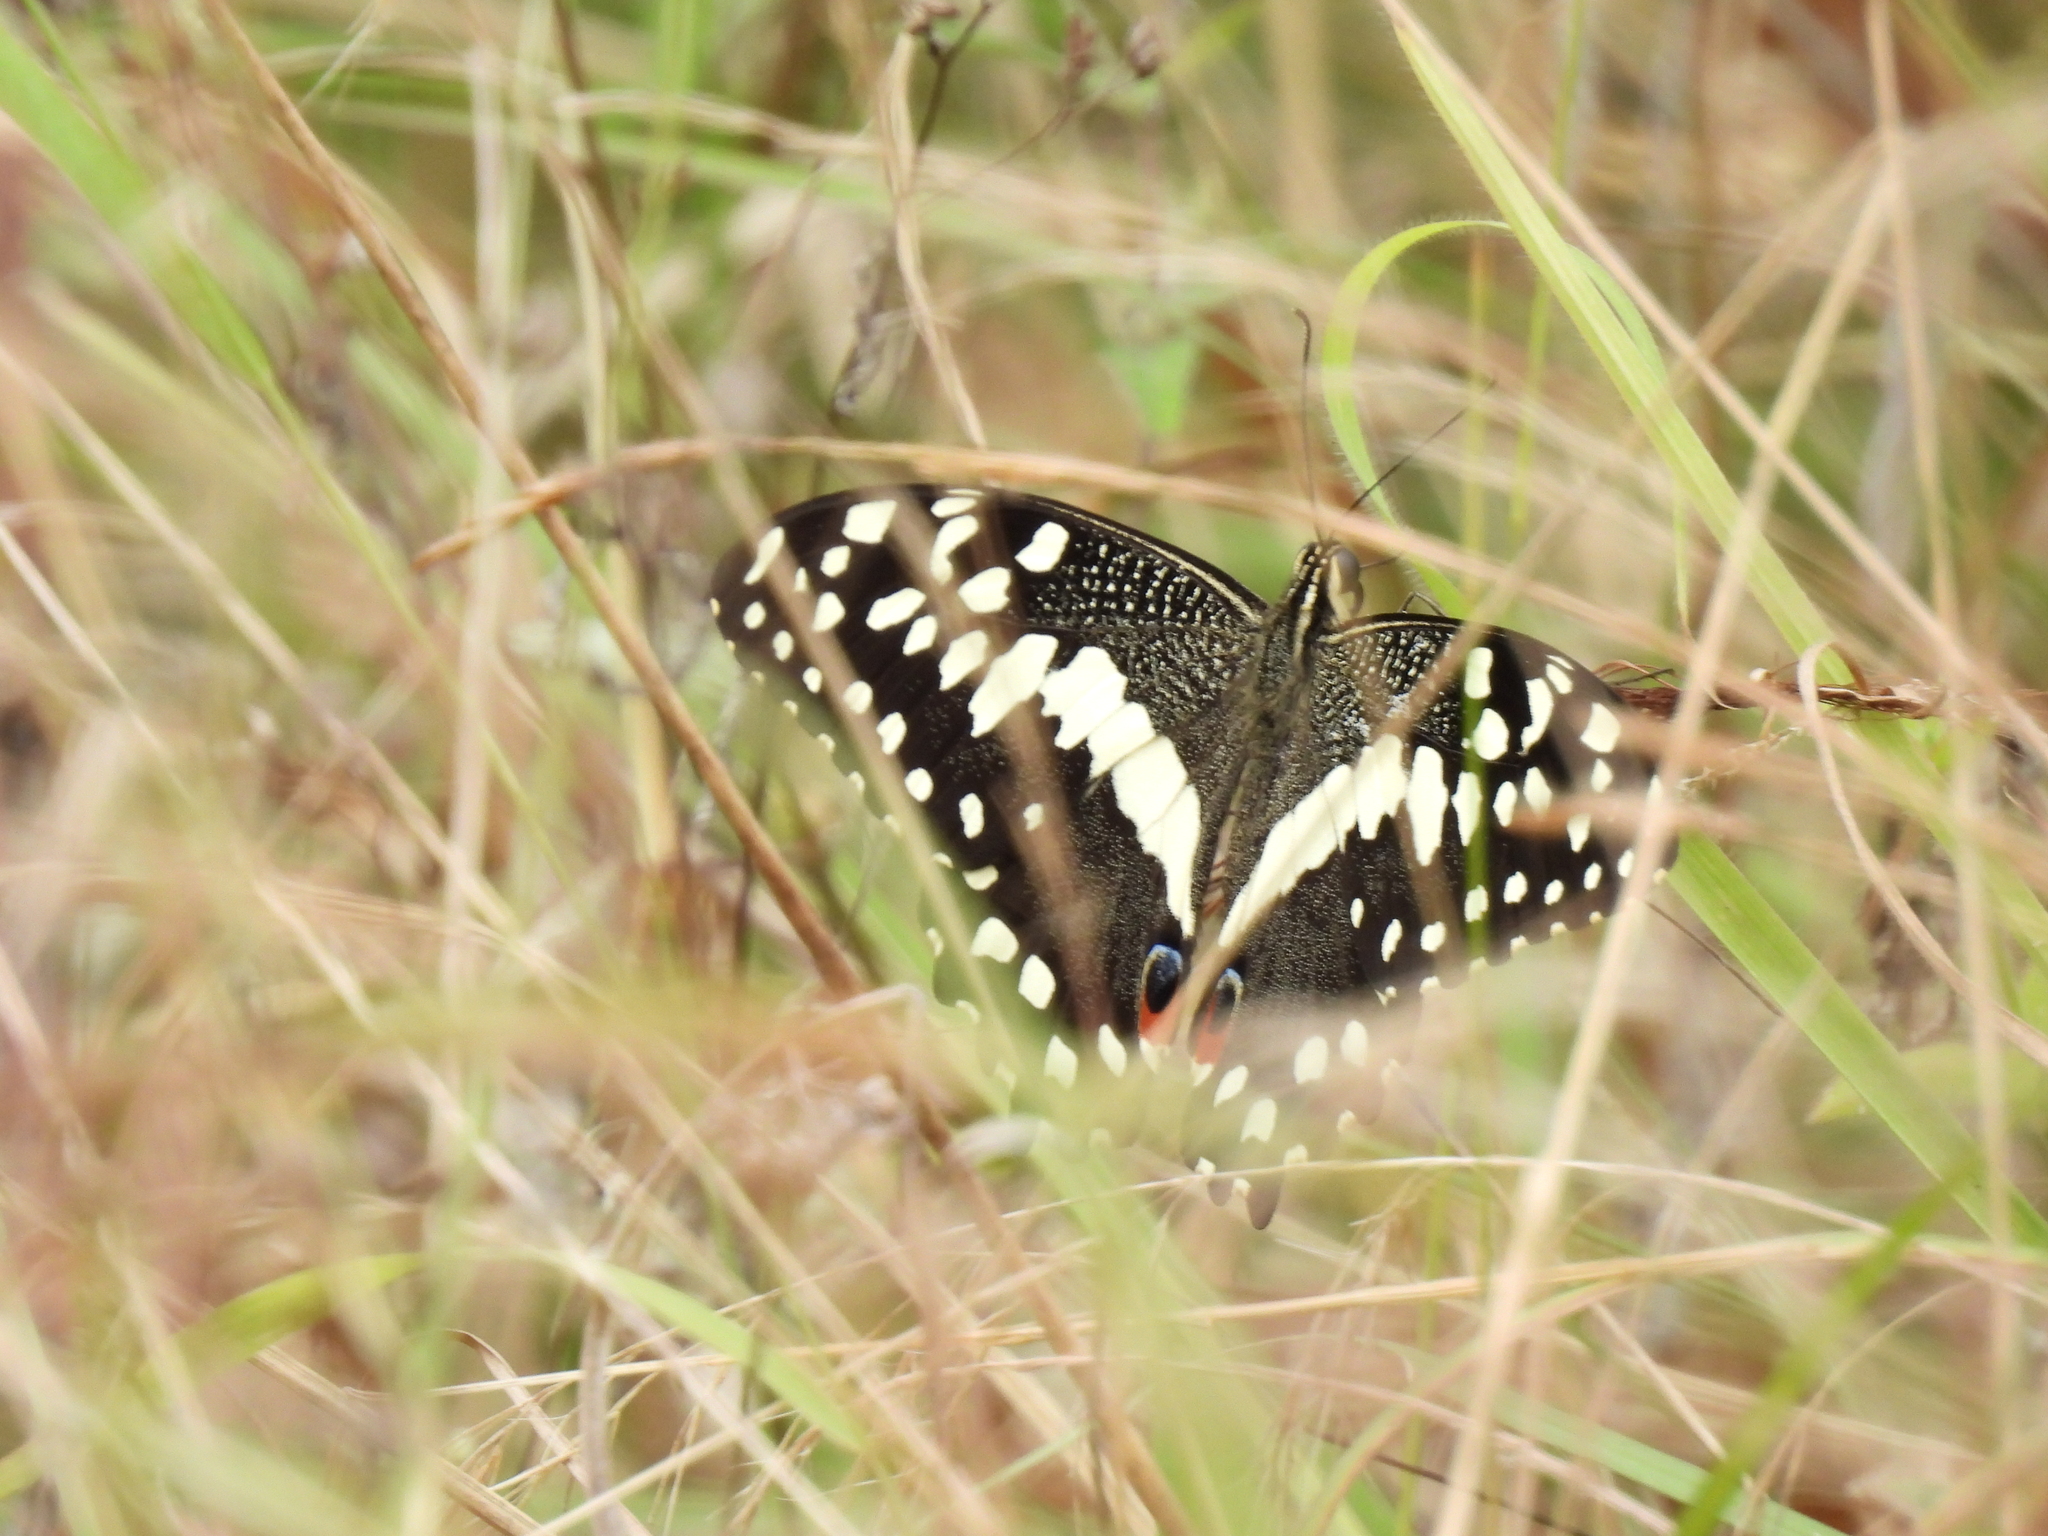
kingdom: Animalia
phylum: Arthropoda
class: Insecta
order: Lepidoptera
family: Papilionidae
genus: Papilio
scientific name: Papilio demodocus
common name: Christmas butterfly
